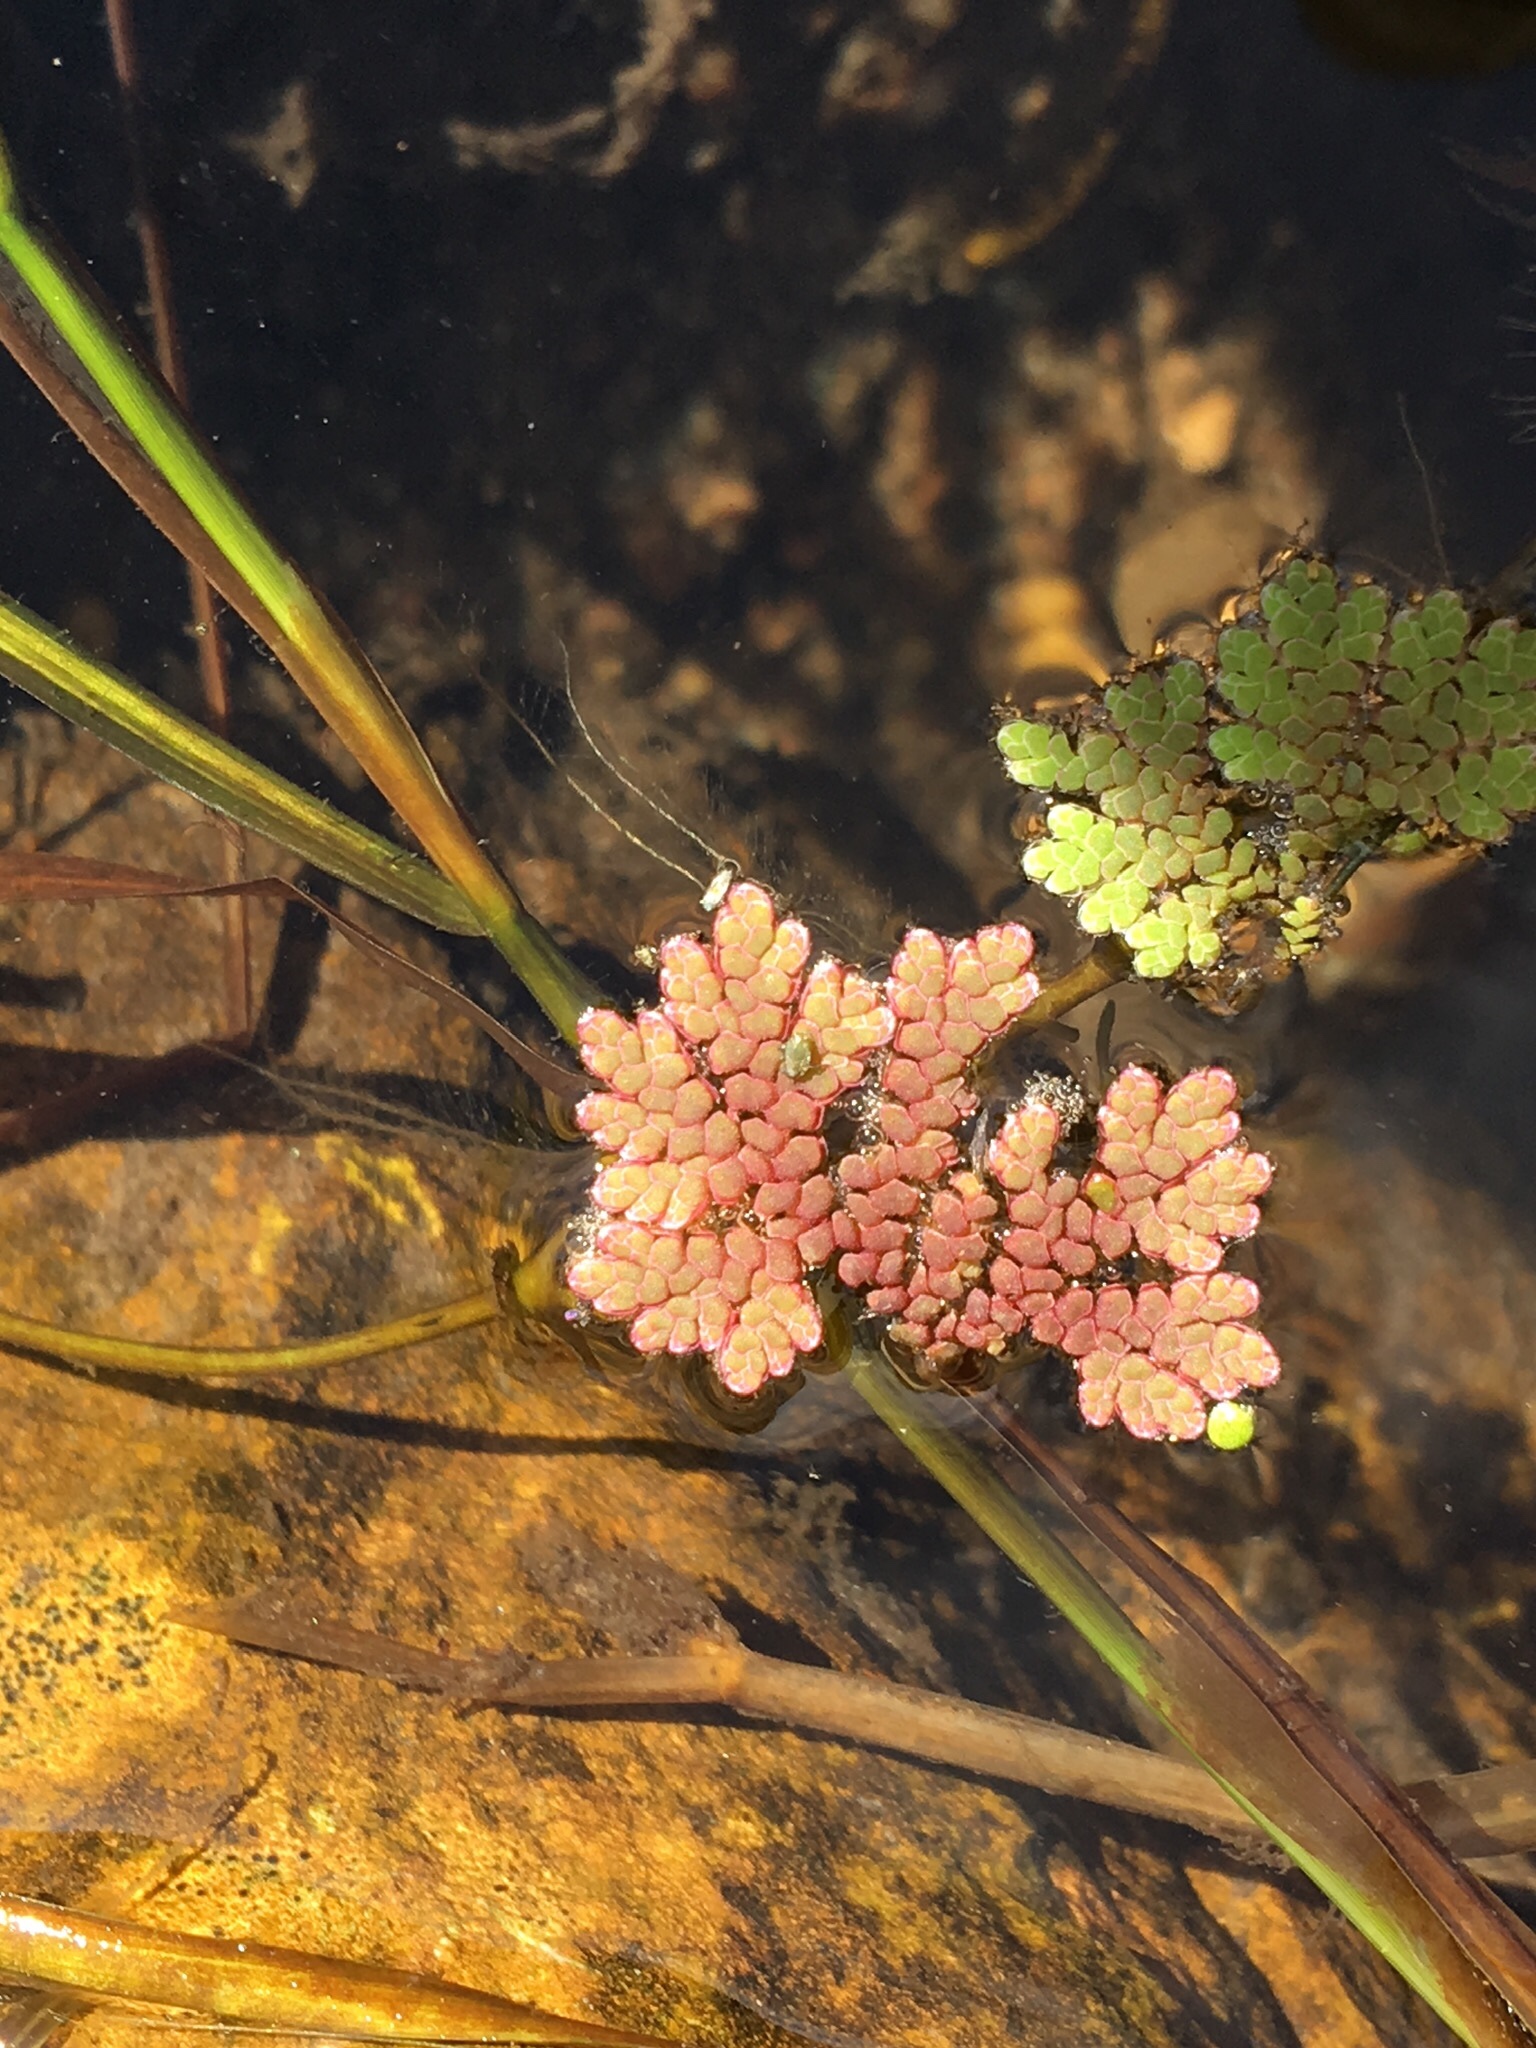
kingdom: Plantae
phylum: Tracheophyta
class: Polypodiopsida
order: Salviniales
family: Salviniaceae
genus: Azolla
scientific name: Azolla cristata
